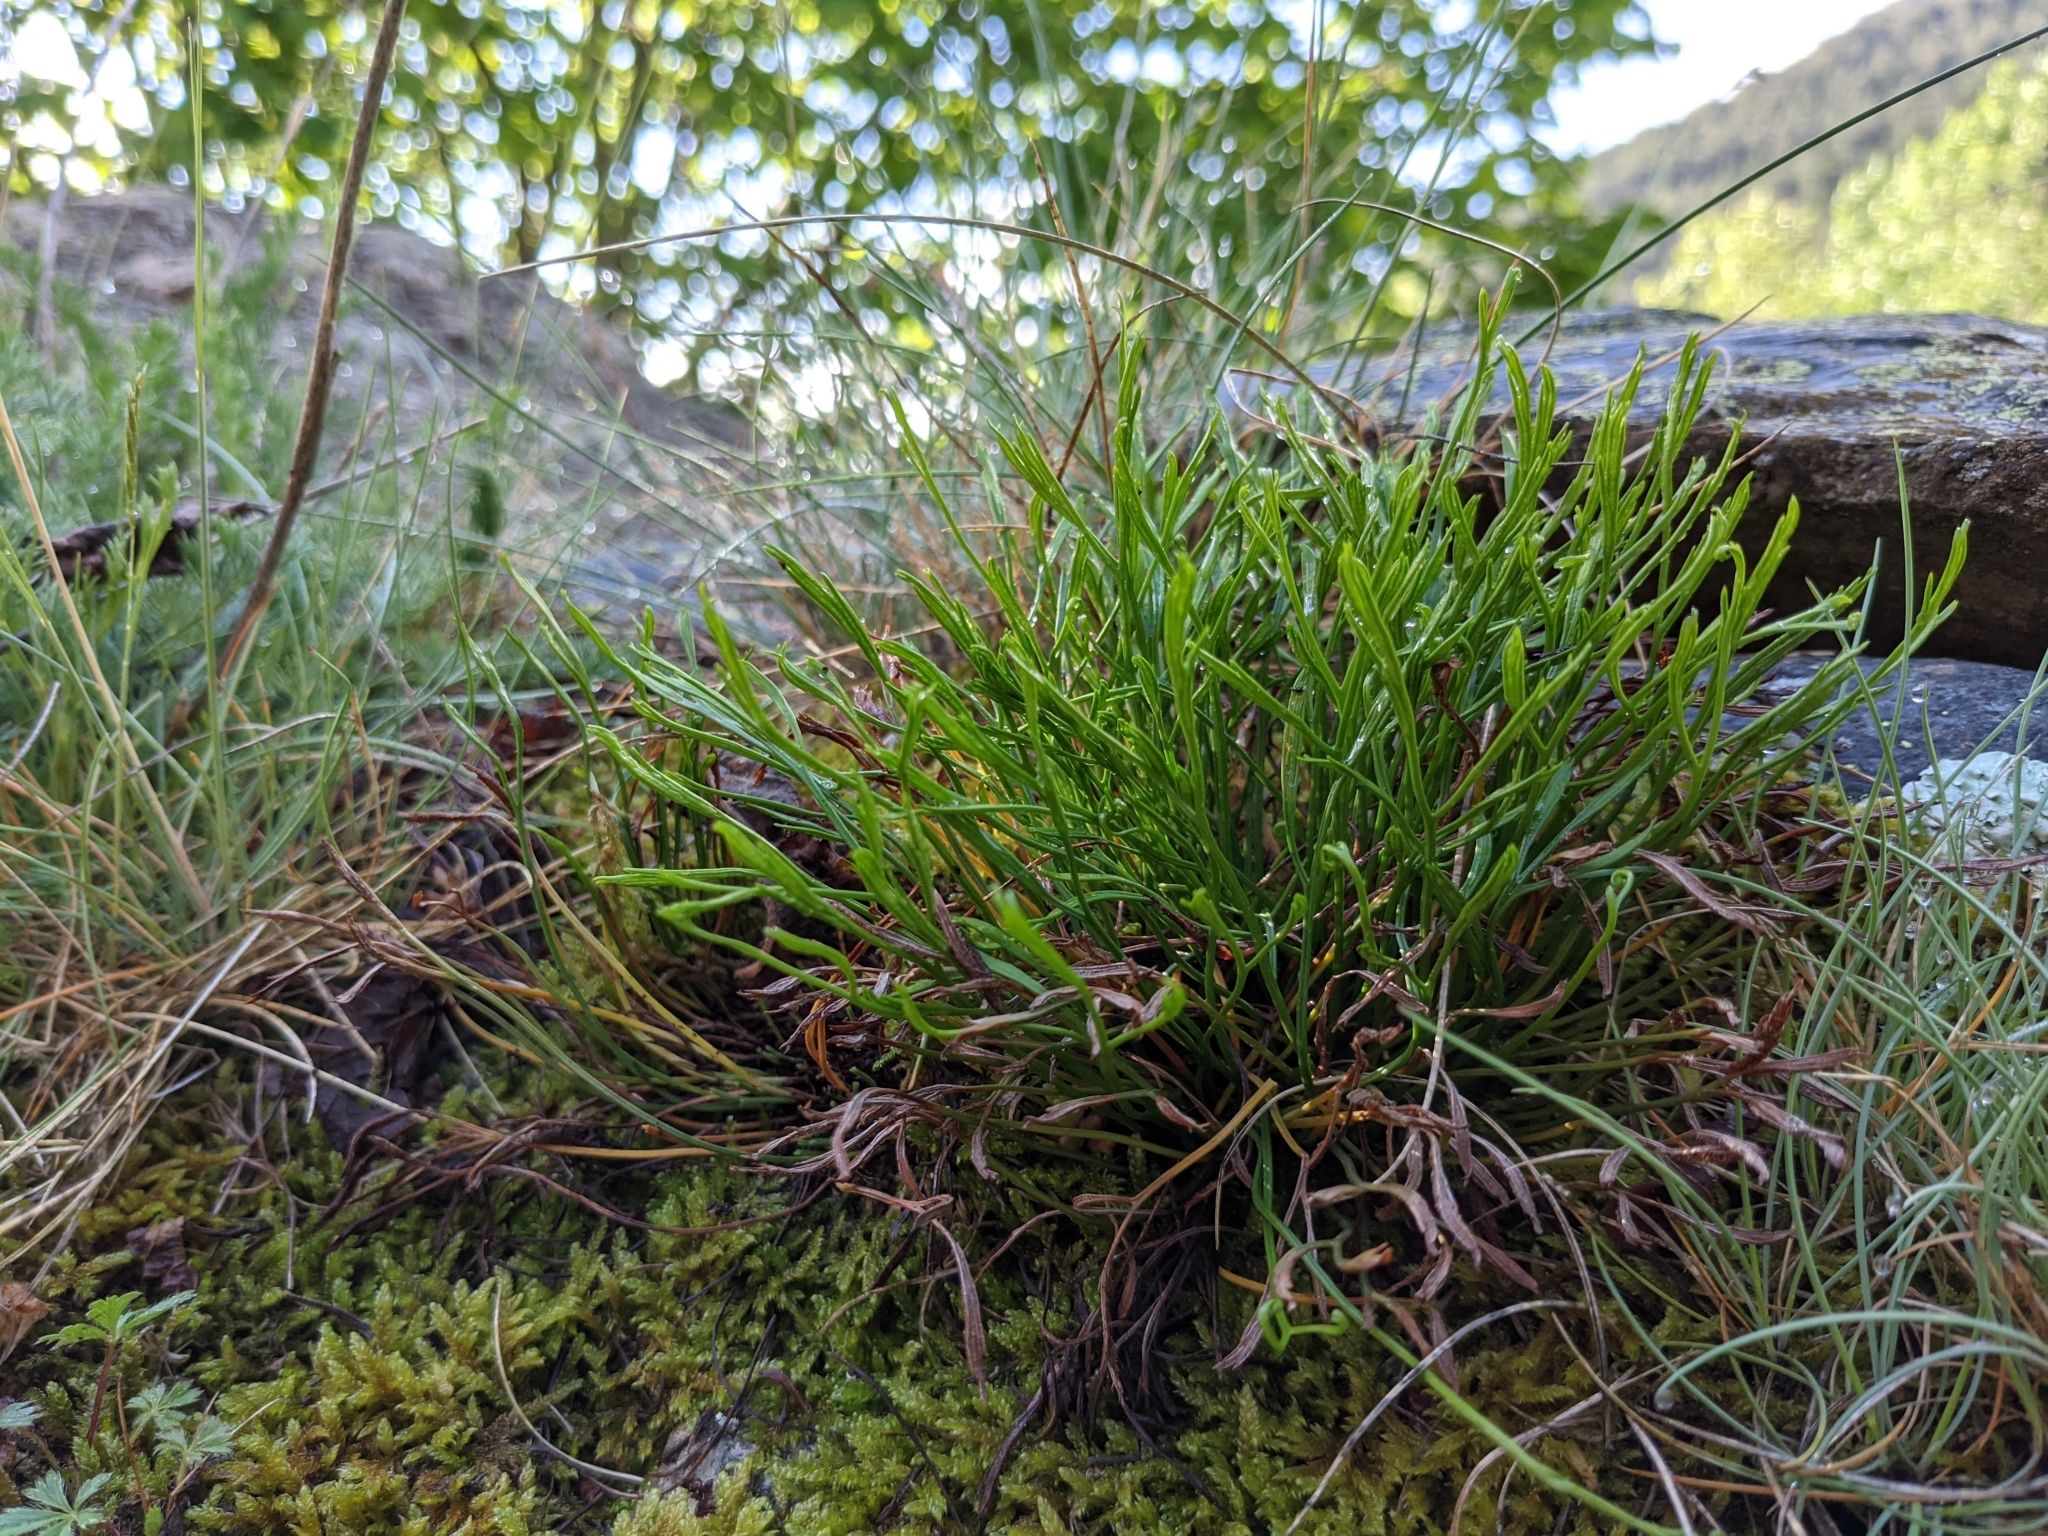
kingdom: Plantae
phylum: Tracheophyta
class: Polypodiopsida
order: Polypodiales
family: Aspleniaceae
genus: Asplenium
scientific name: Asplenium septentrionale
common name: Forked spleenwort
